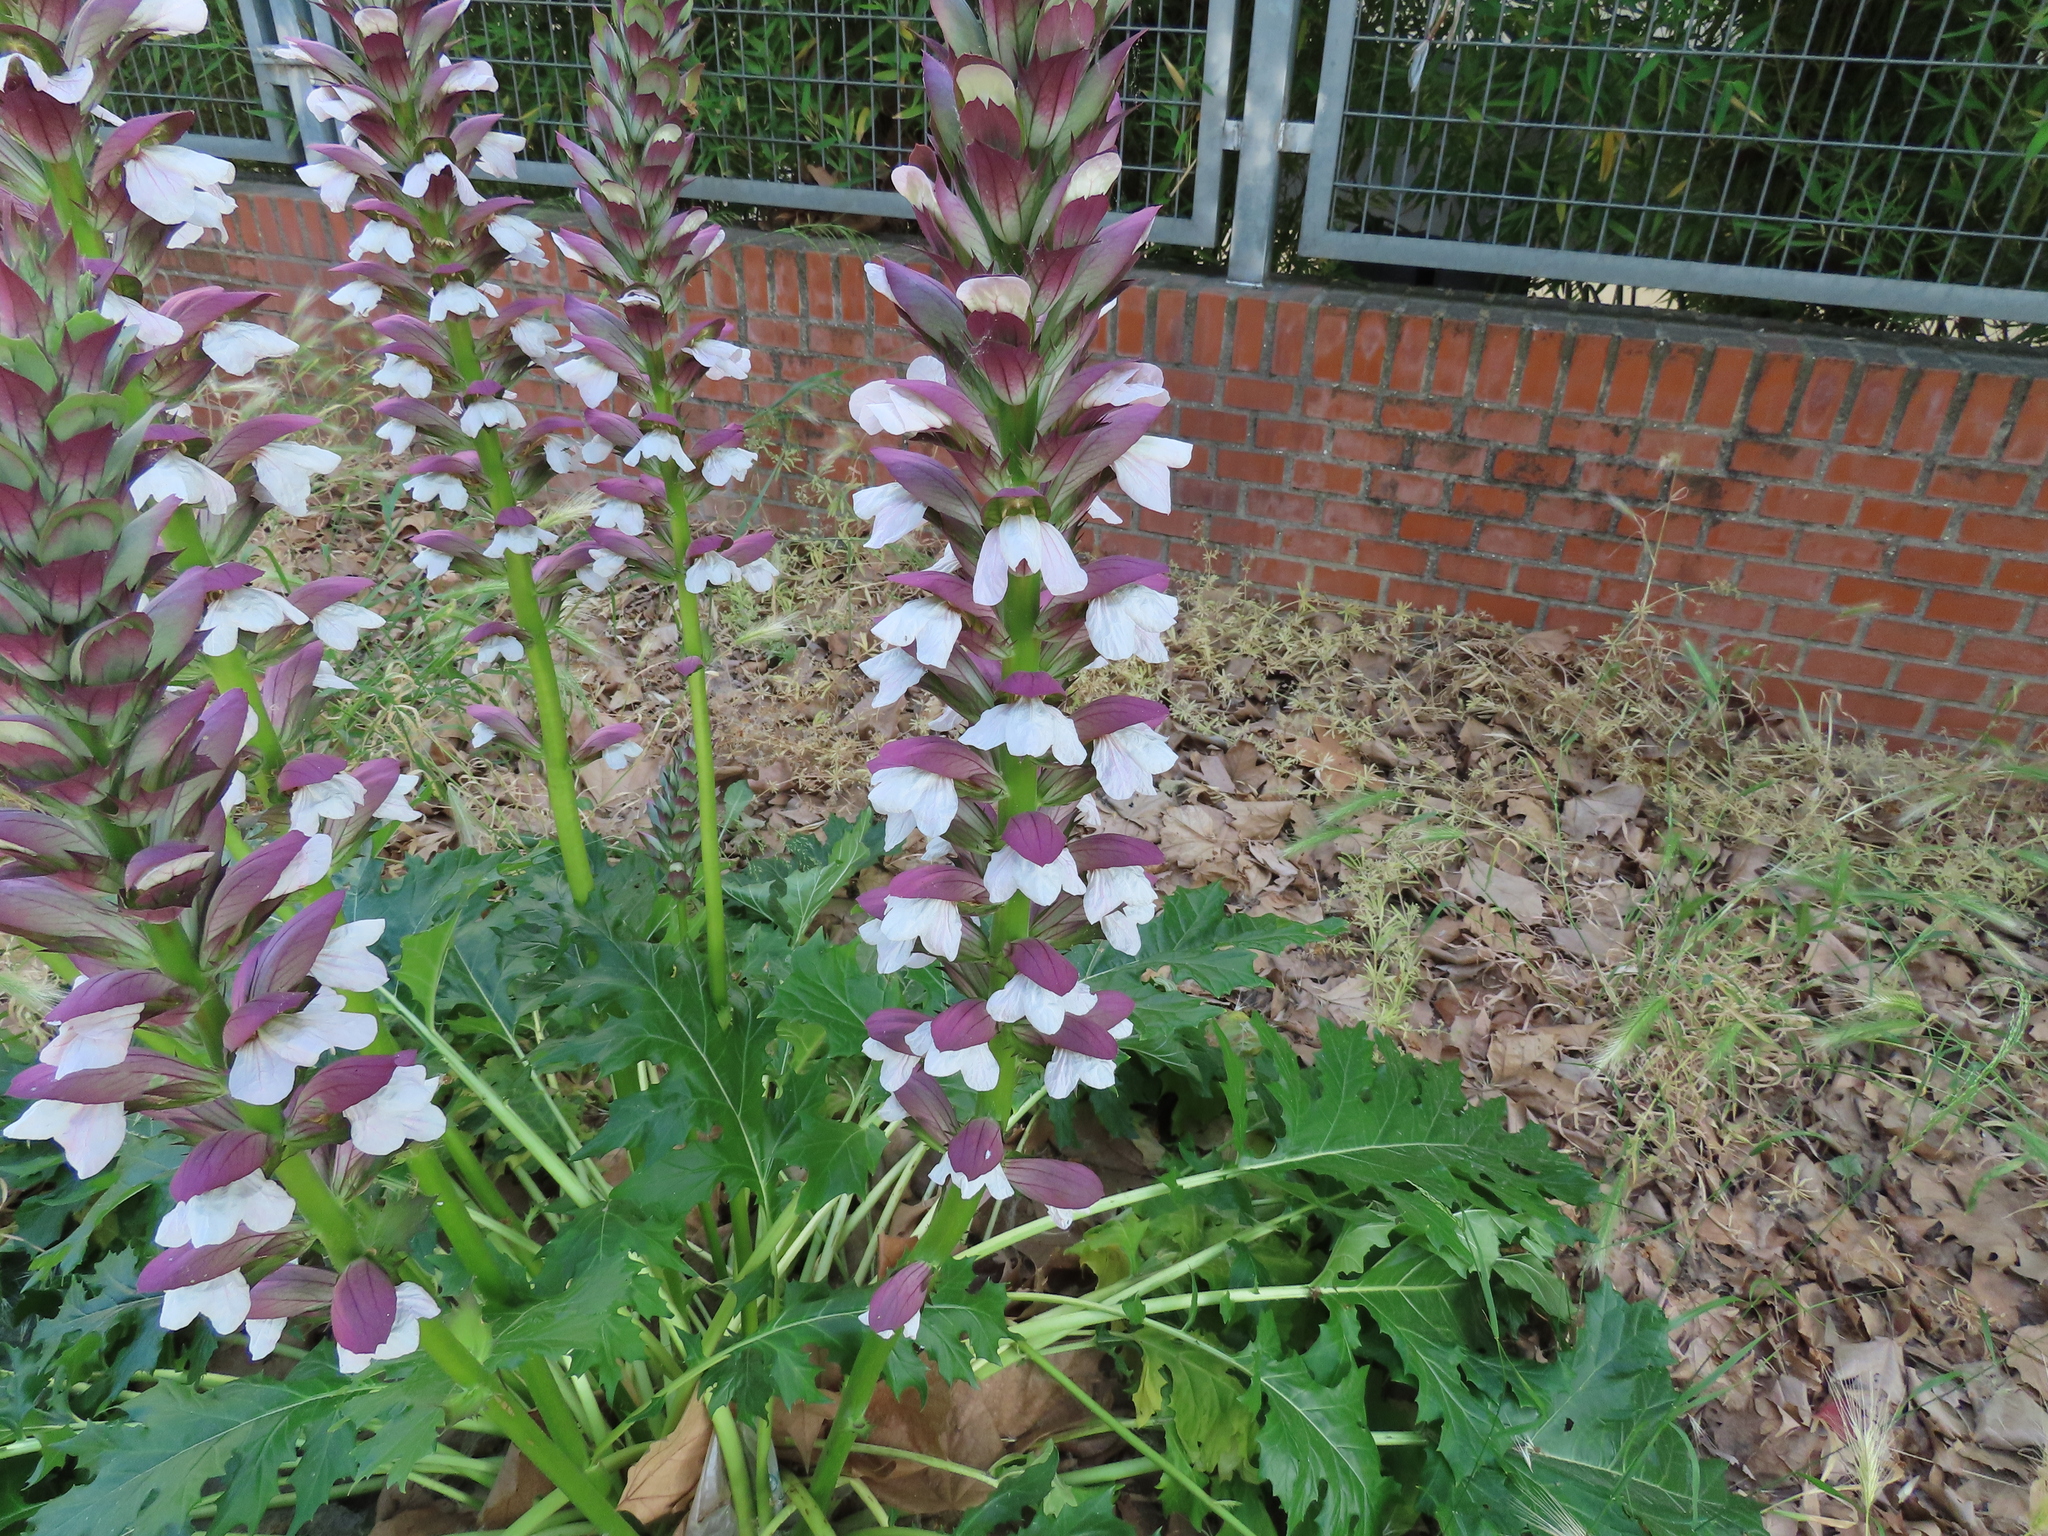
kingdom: Plantae
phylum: Tracheophyta
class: Magnoliopsida
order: Lamiales
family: Acanthaceae
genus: Acanthus
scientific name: Acanthus mollis
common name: Bear's-breech
